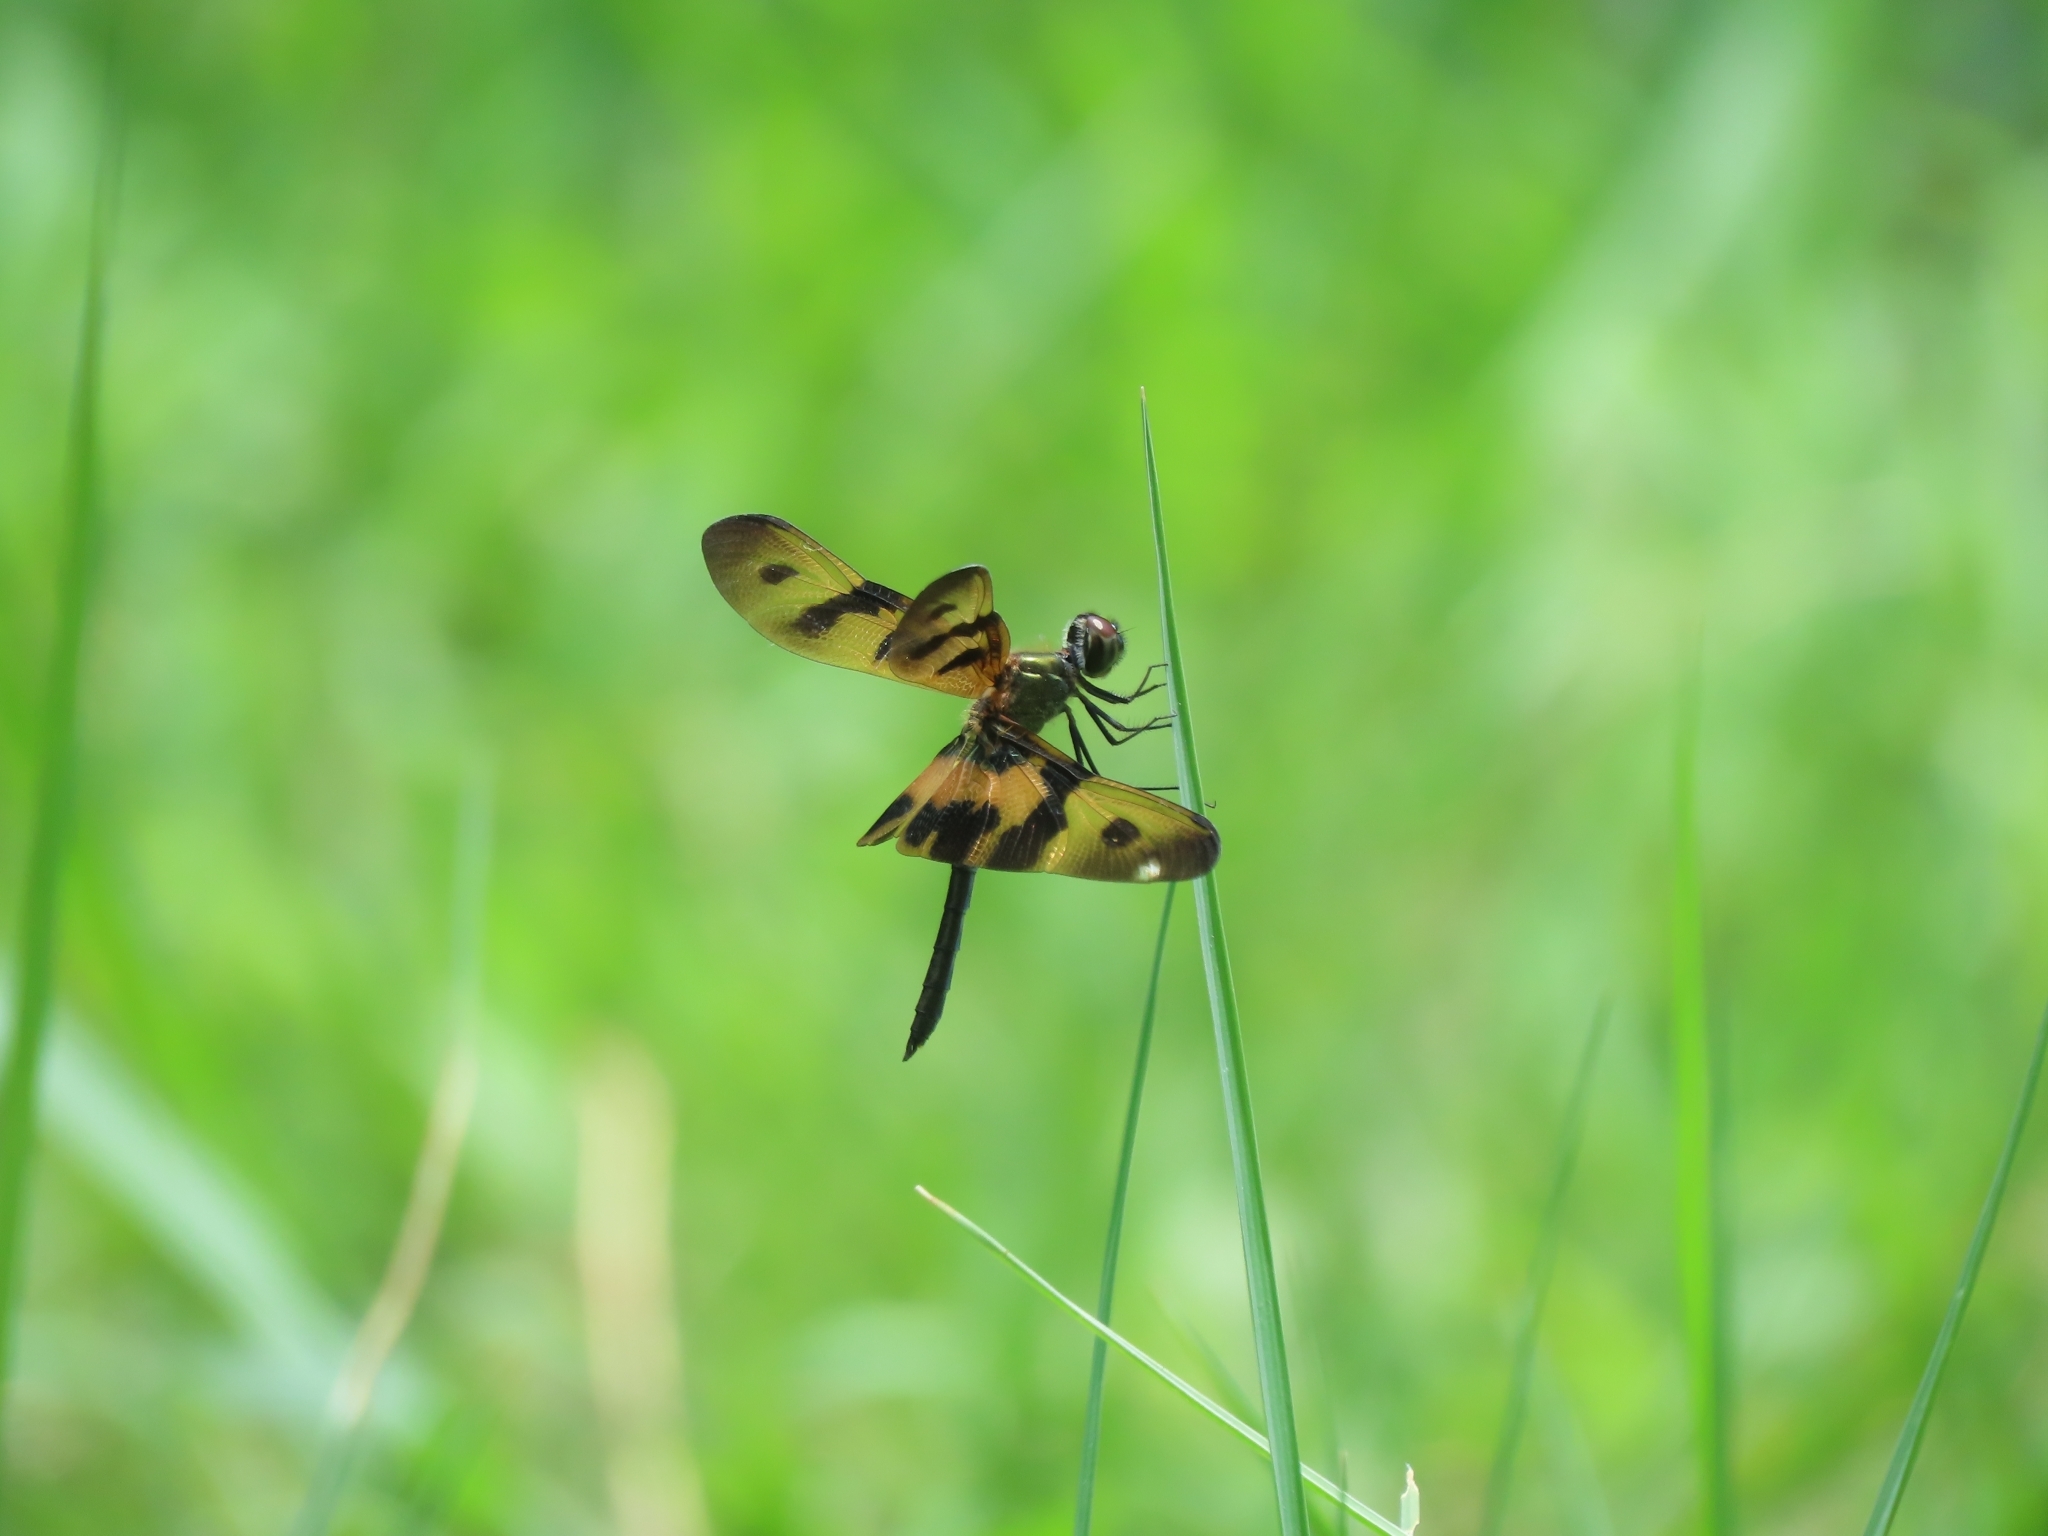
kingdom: Animalia
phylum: Arthropoda
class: Insecta
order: Odonata
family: Libellulidae
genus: Rhyothemis
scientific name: Rhyothemis variegata
